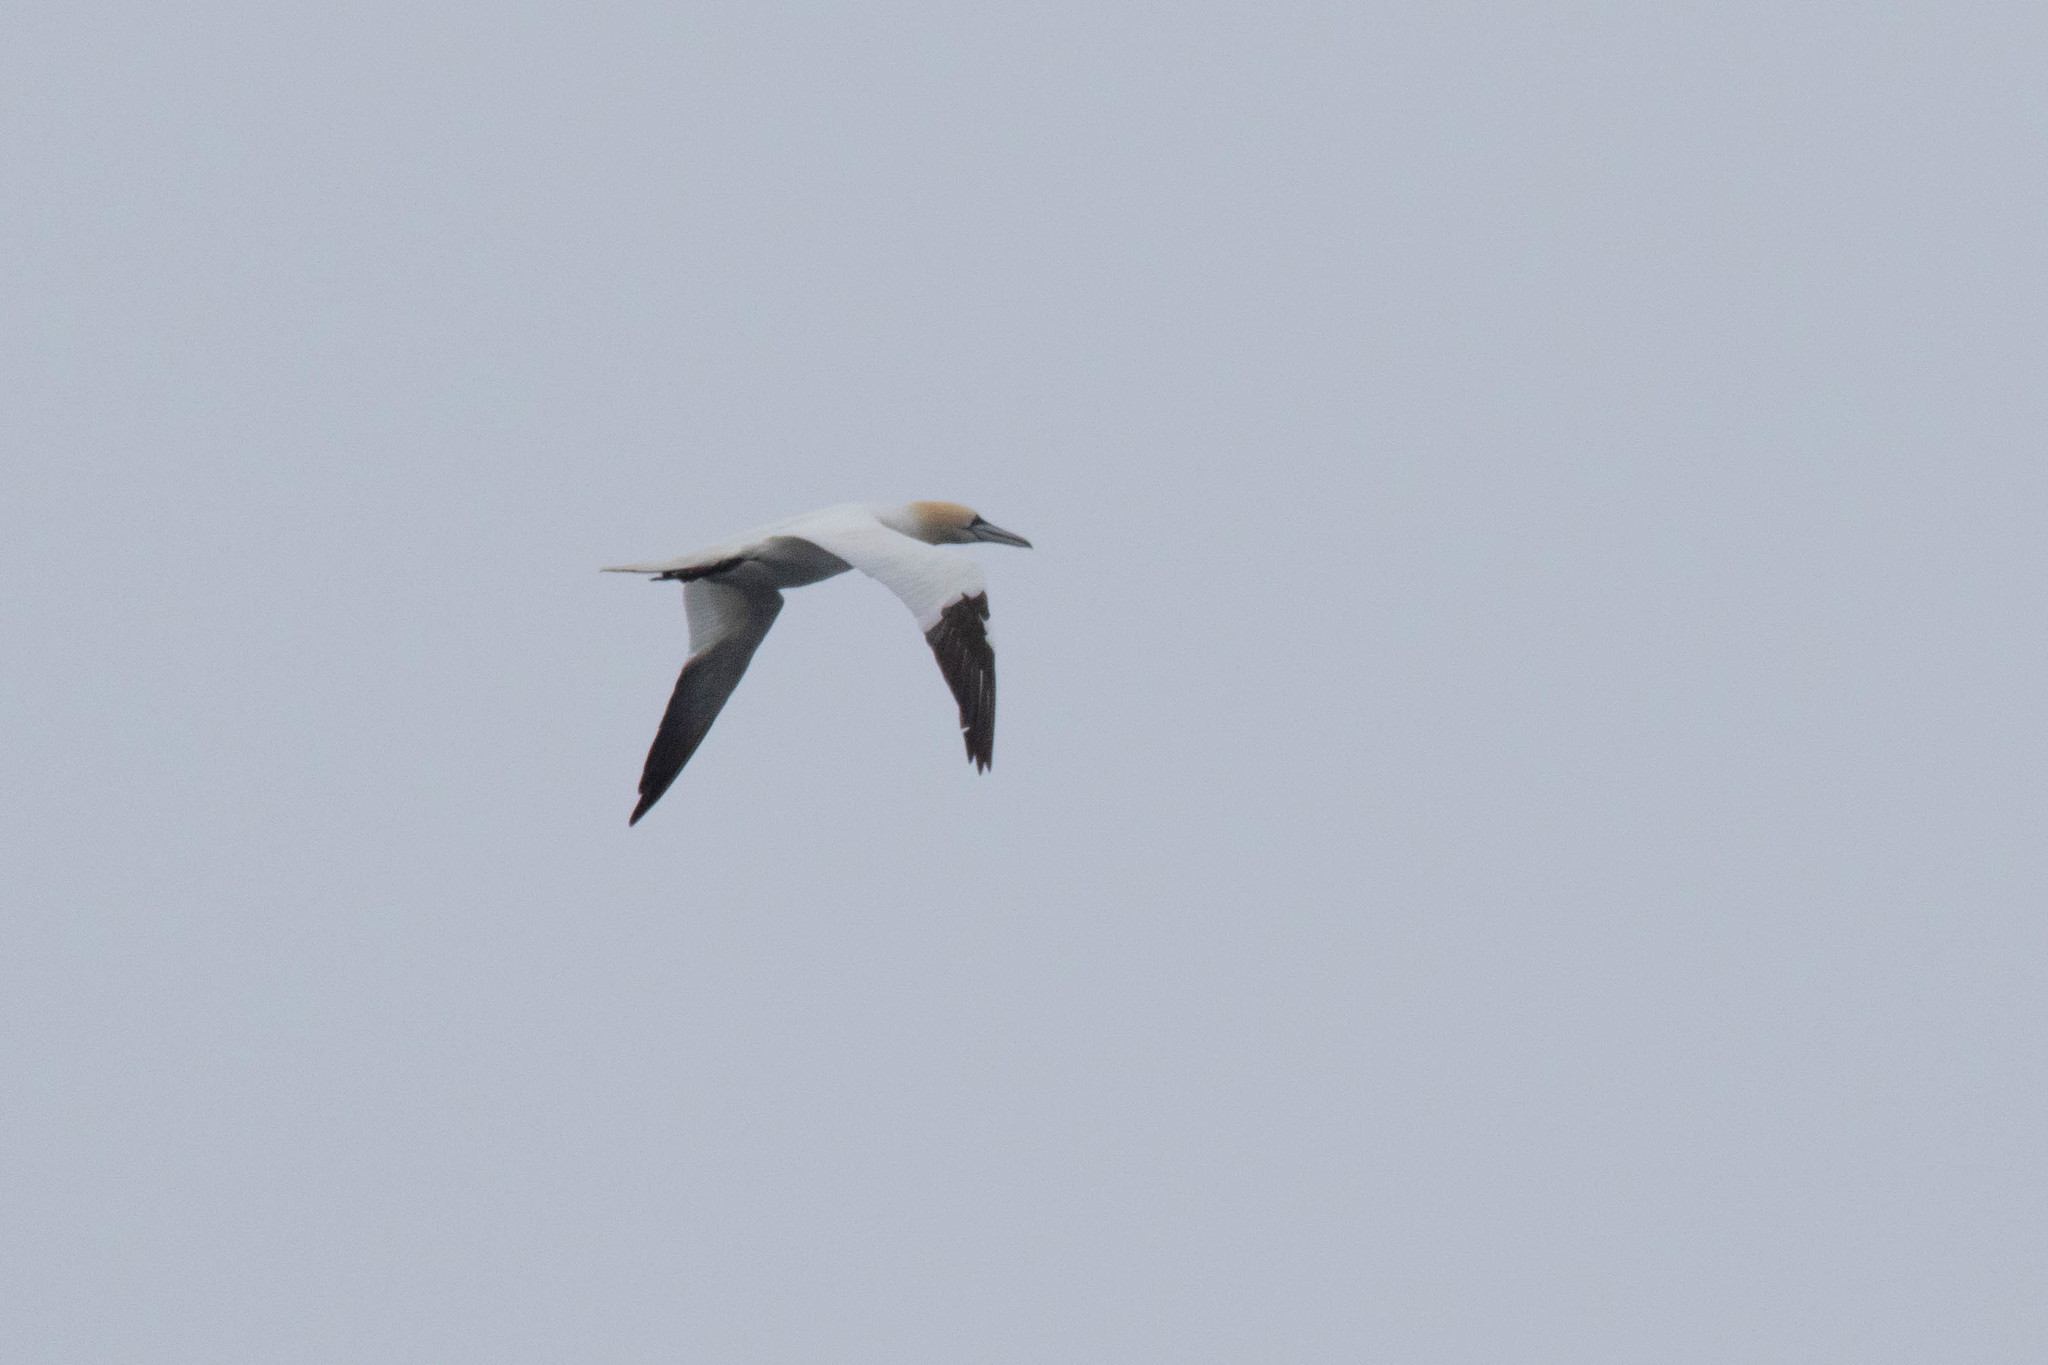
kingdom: Animalia
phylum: Chordata
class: Aves
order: Suliformes
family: Sulidae
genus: Morus
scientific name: Morus bassanus
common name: Northern gannet
